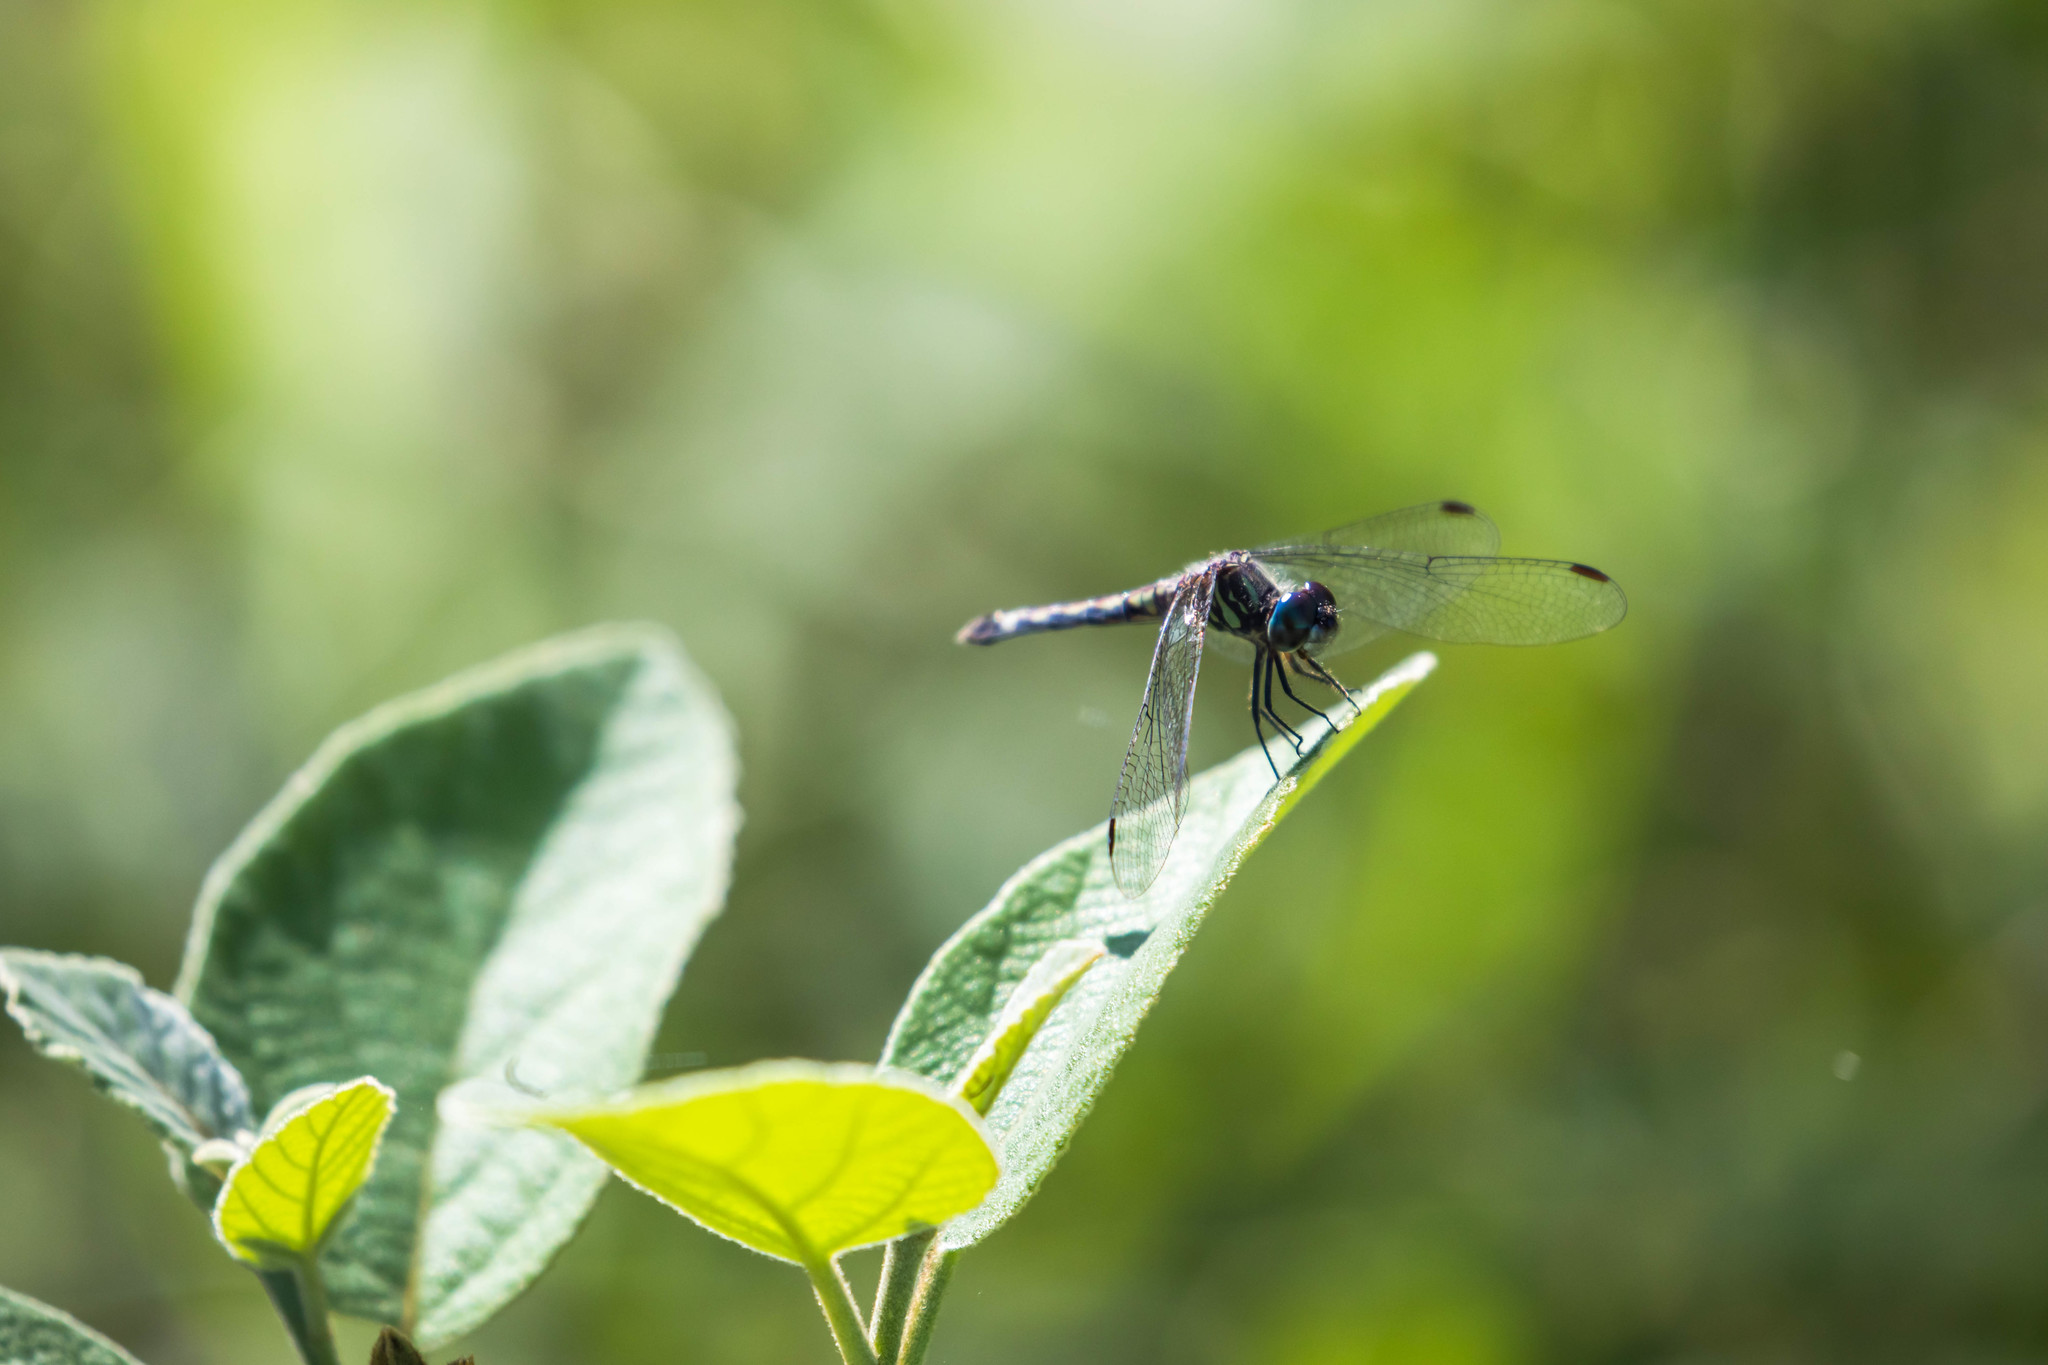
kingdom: Animalia
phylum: Arthropoda
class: Insecta
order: Odonata
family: Libellulidae
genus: Micrathyria
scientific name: Micrathyria hagenii
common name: Thornbush dasher
